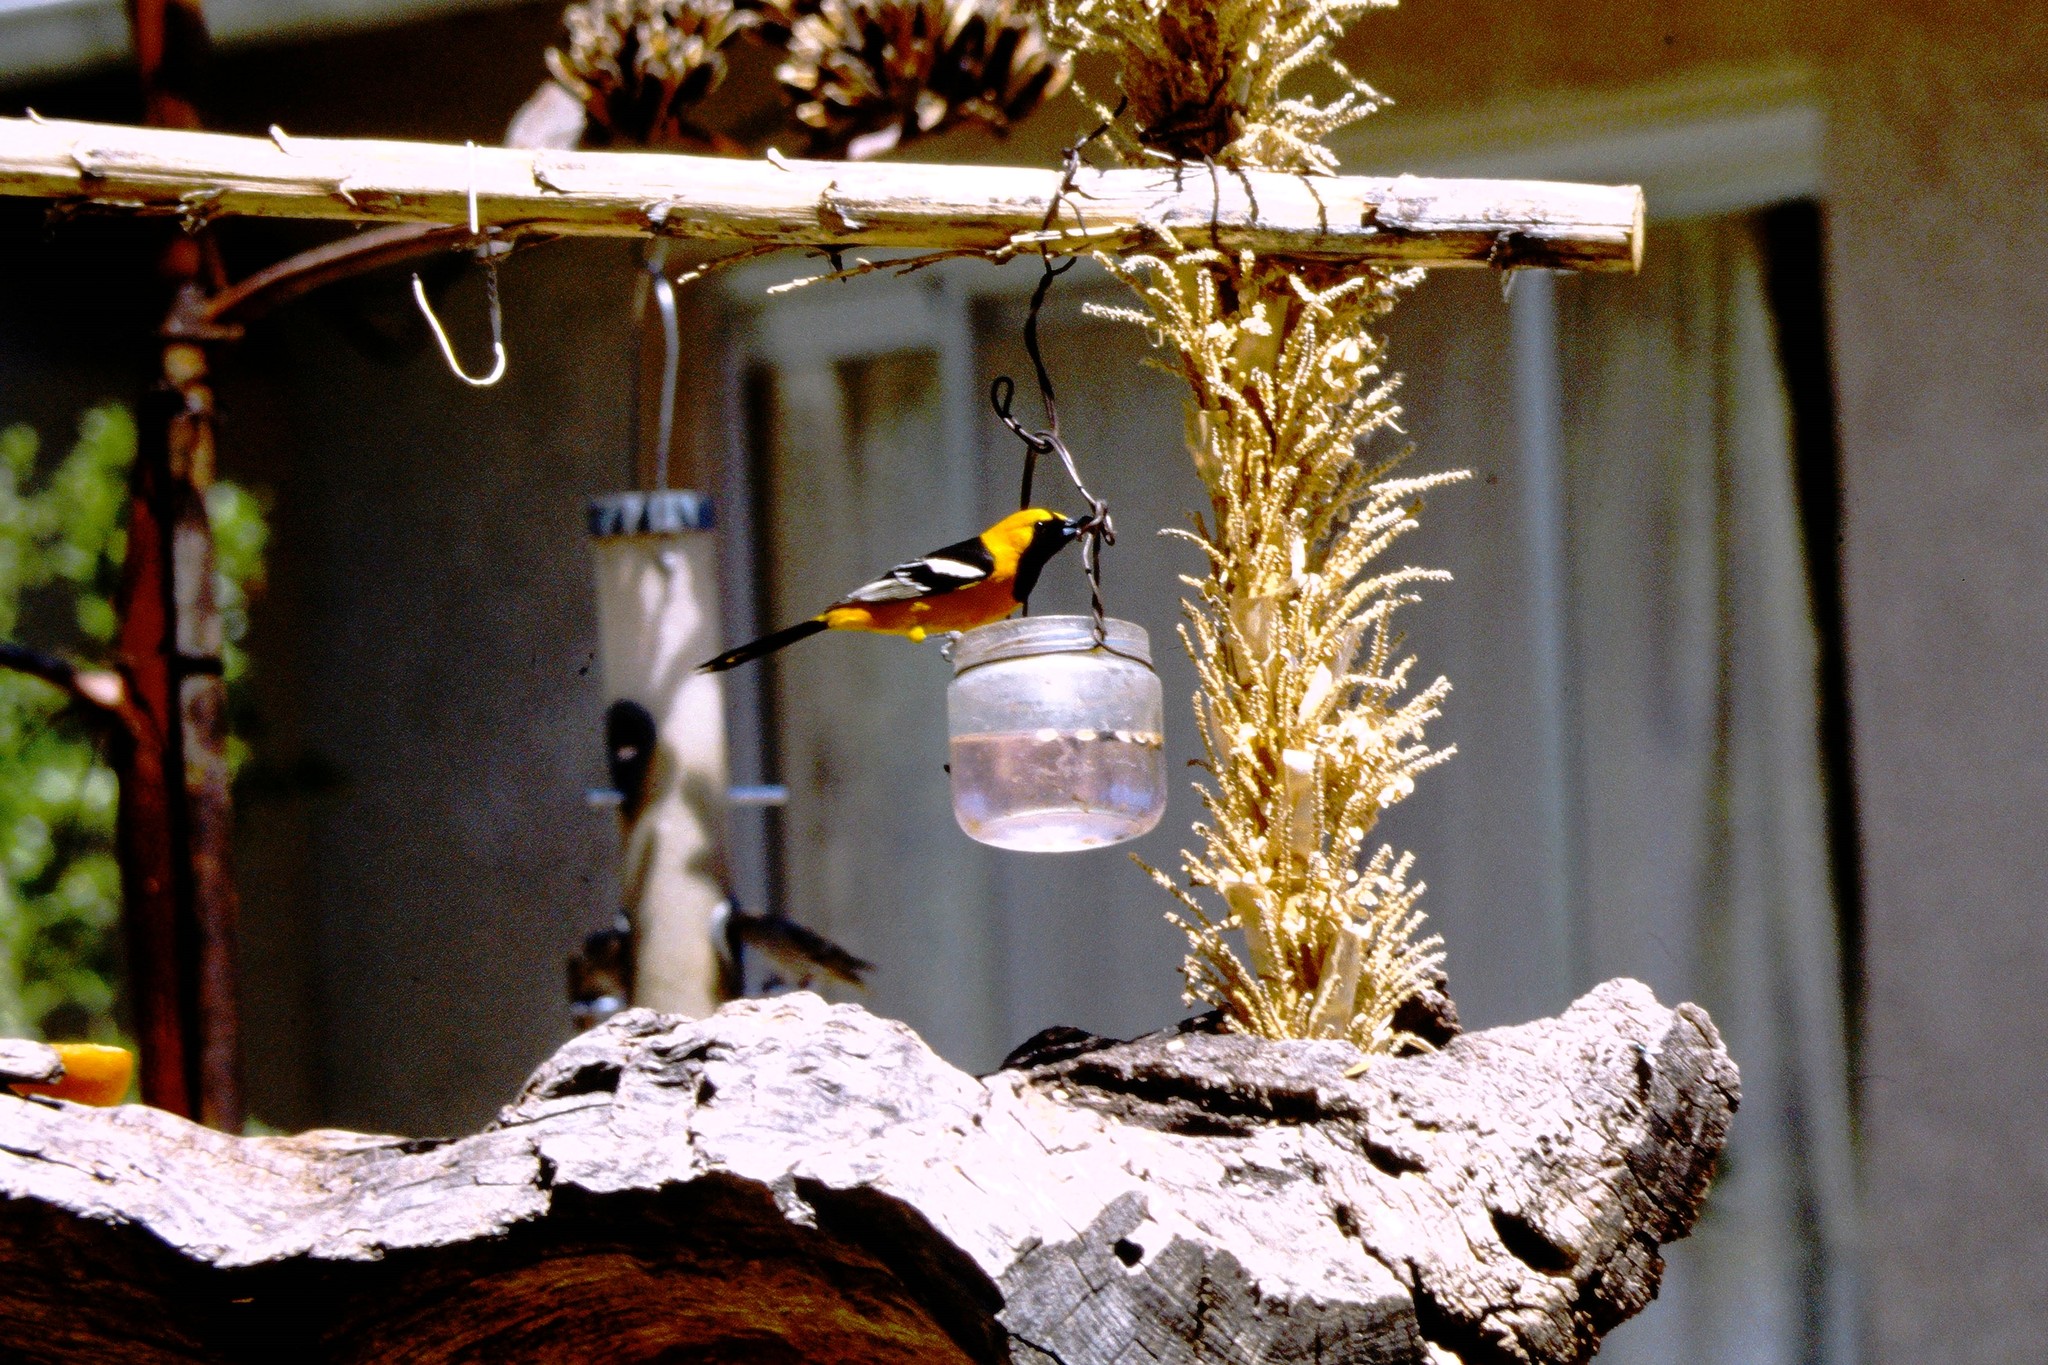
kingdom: Animalia
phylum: Chordata
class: Aves
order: Passeriformes
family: Icteridae
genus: Icterus
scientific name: Icterus cucullatus
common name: Hooded oriole
